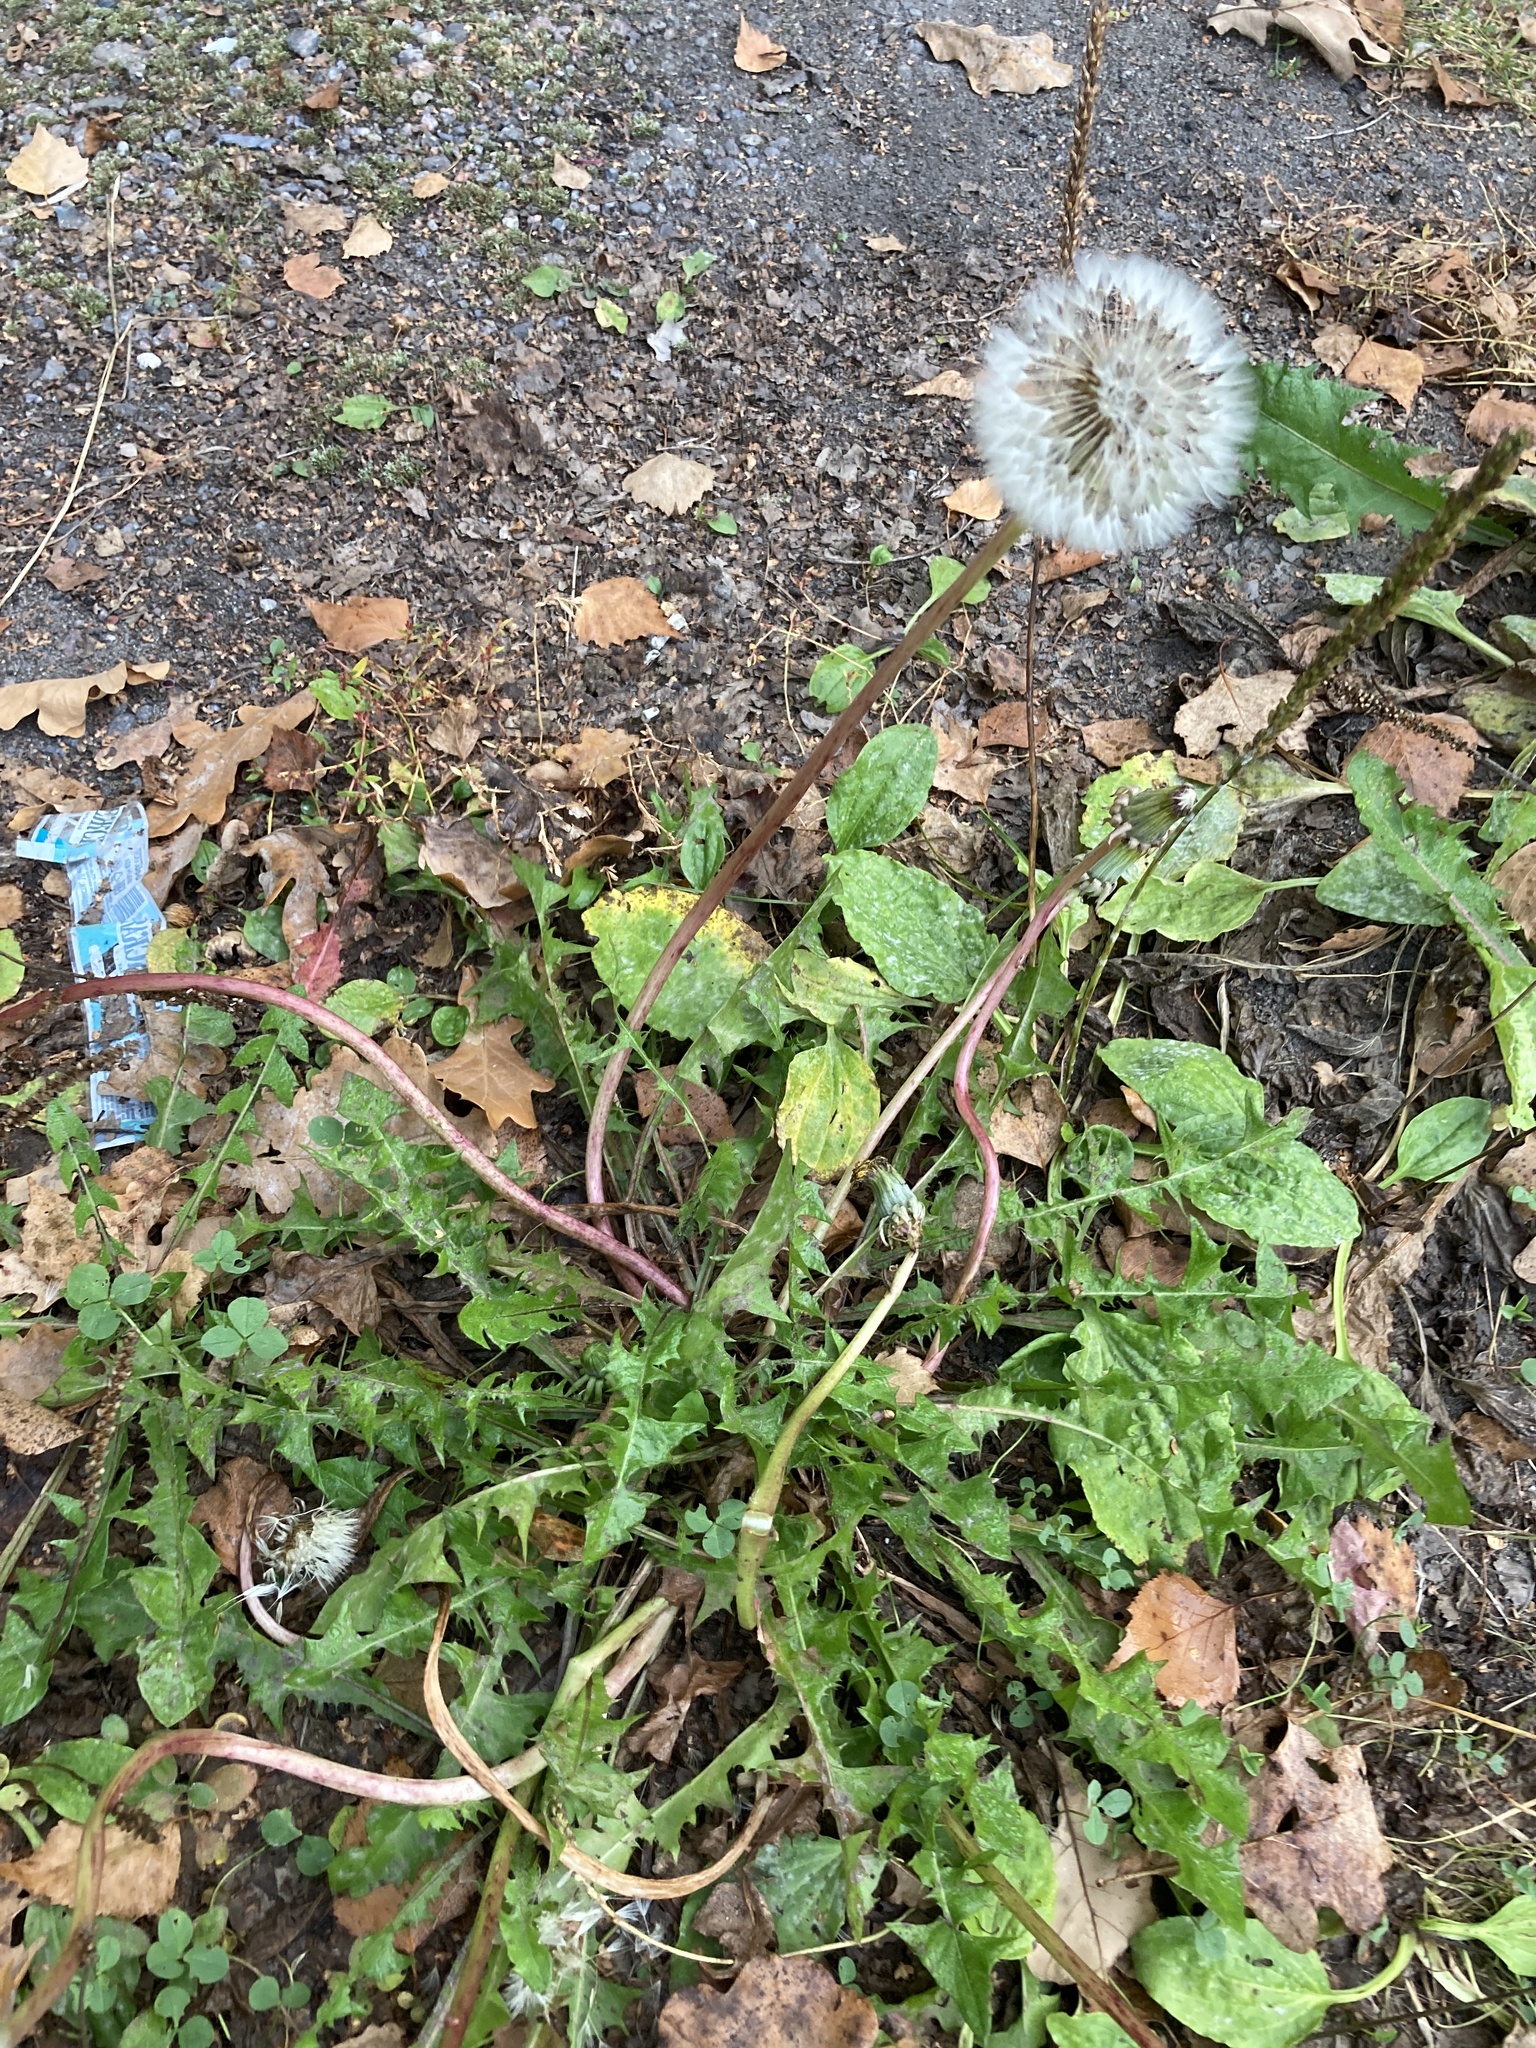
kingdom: Plantae
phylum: Tracheophyta
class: Magnoliopsida
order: Asterales
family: Asteraceae
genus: Taraxacum
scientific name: Taraxacum officinale
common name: Common dandelion
